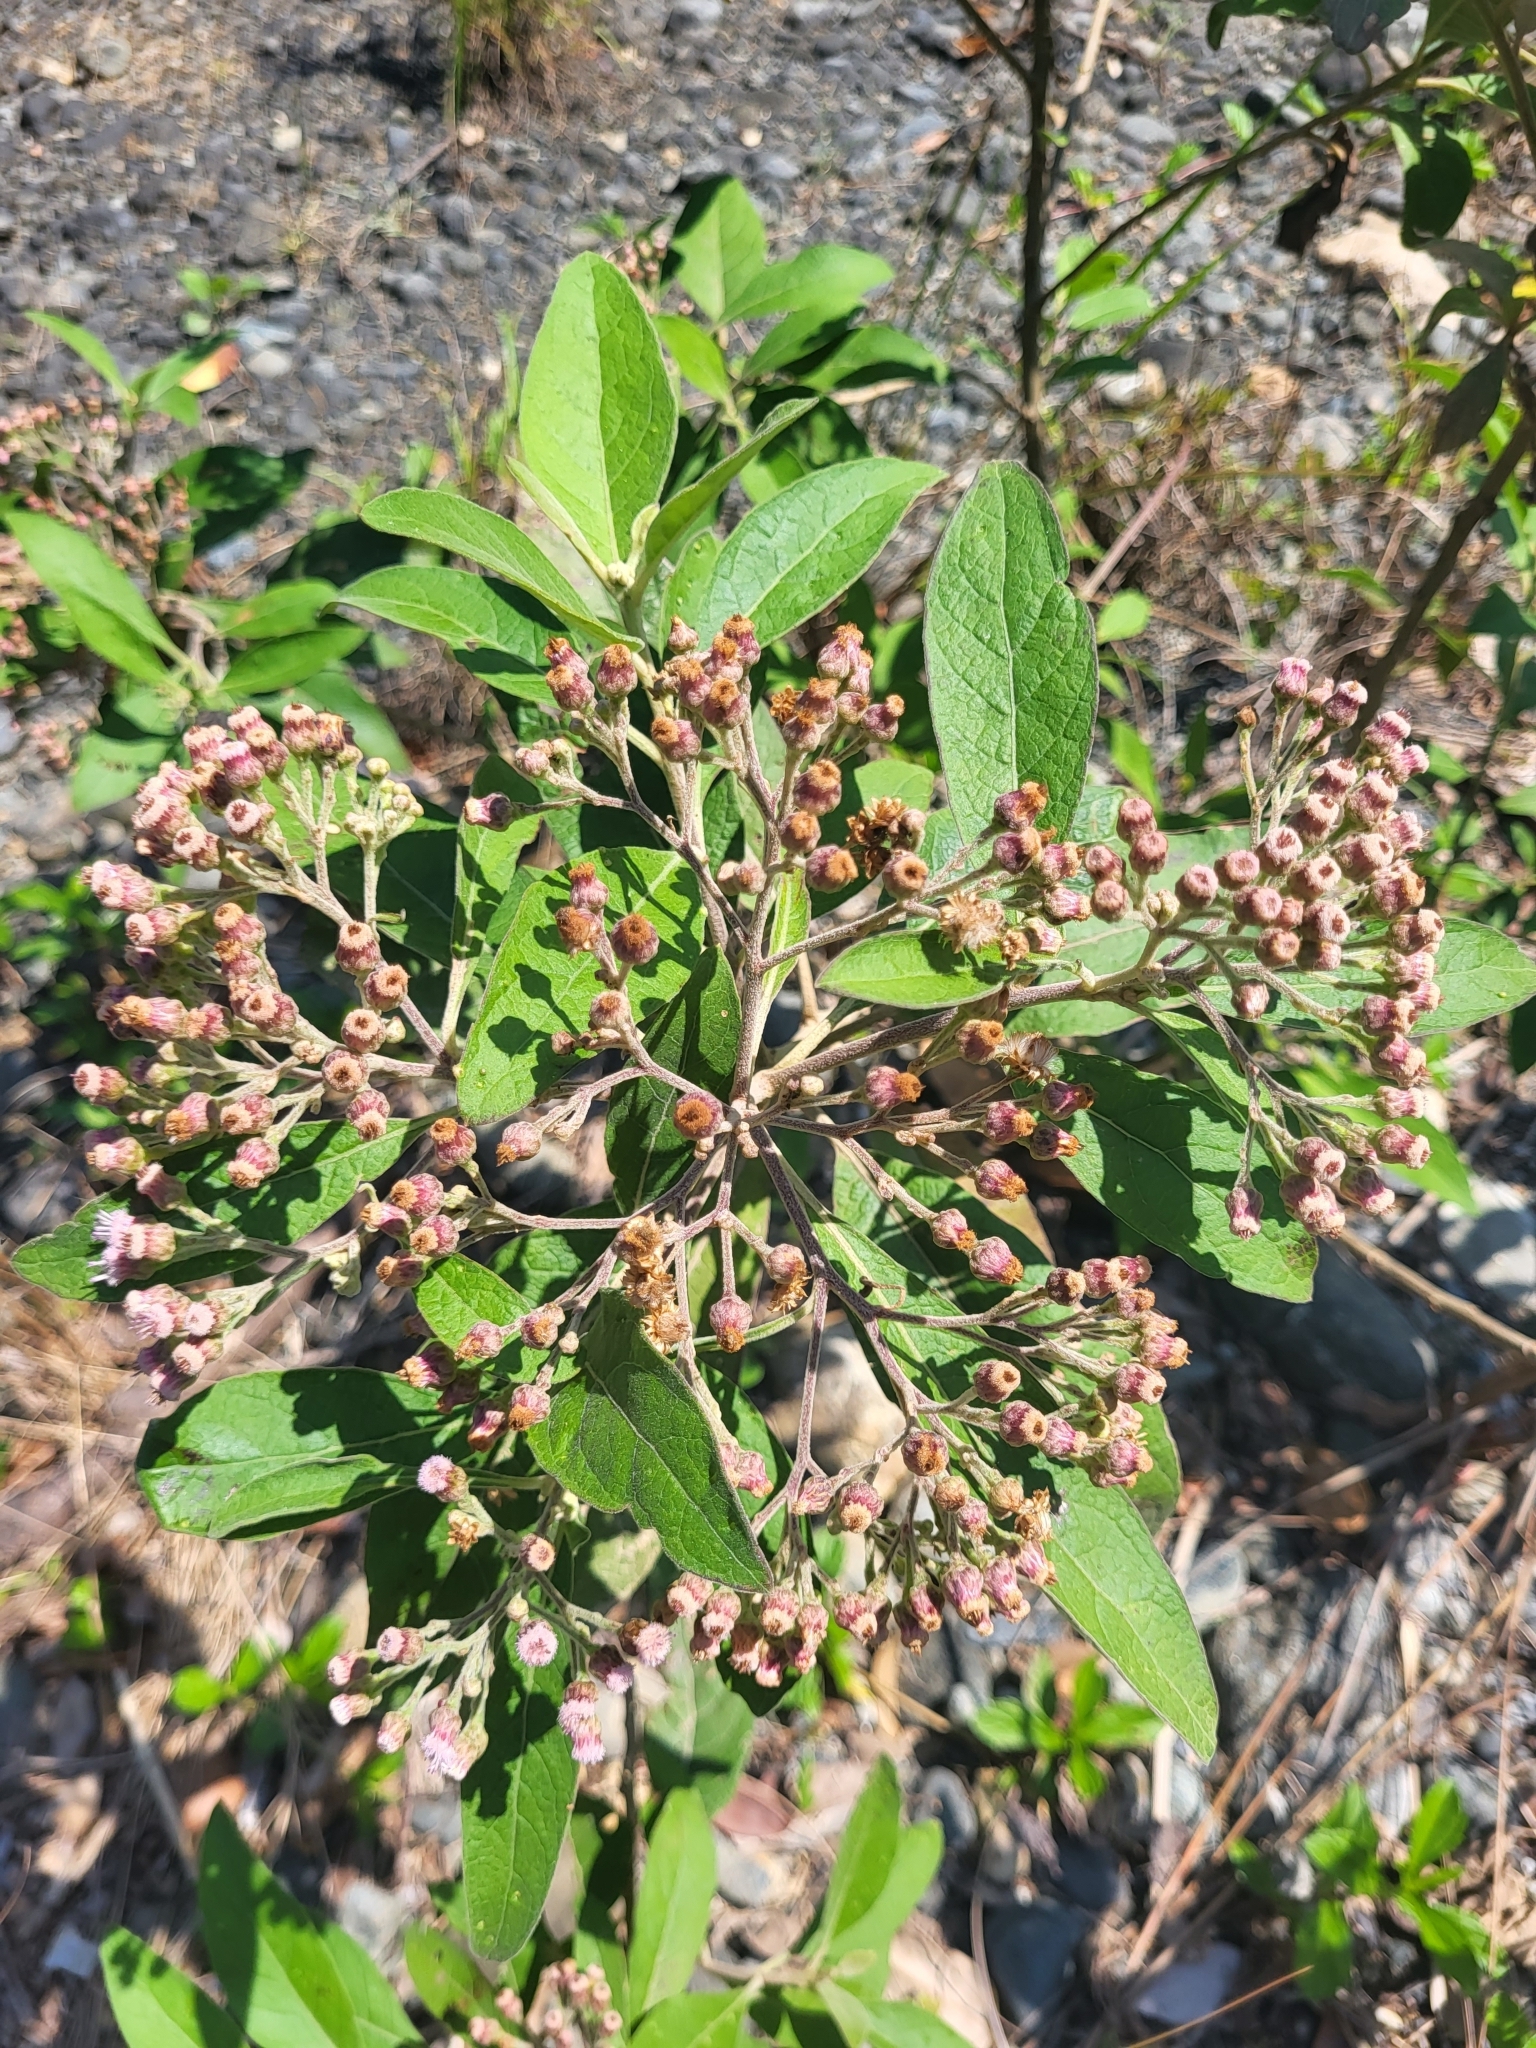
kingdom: Plantae
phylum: Tracheophyta
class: Magnoliopsida
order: Asterales
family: Asteraceae
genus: Pluchea
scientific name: Pluchea carolinensis
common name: Marsh fleabane
